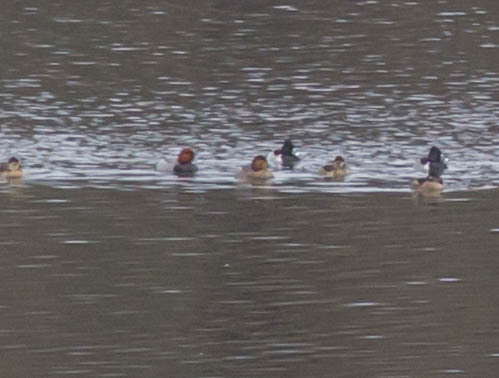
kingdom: Animalia
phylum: Chordata
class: Aves
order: Anseriformes
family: Anatidae
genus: Aythya
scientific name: Aythya americana
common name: Redhead
